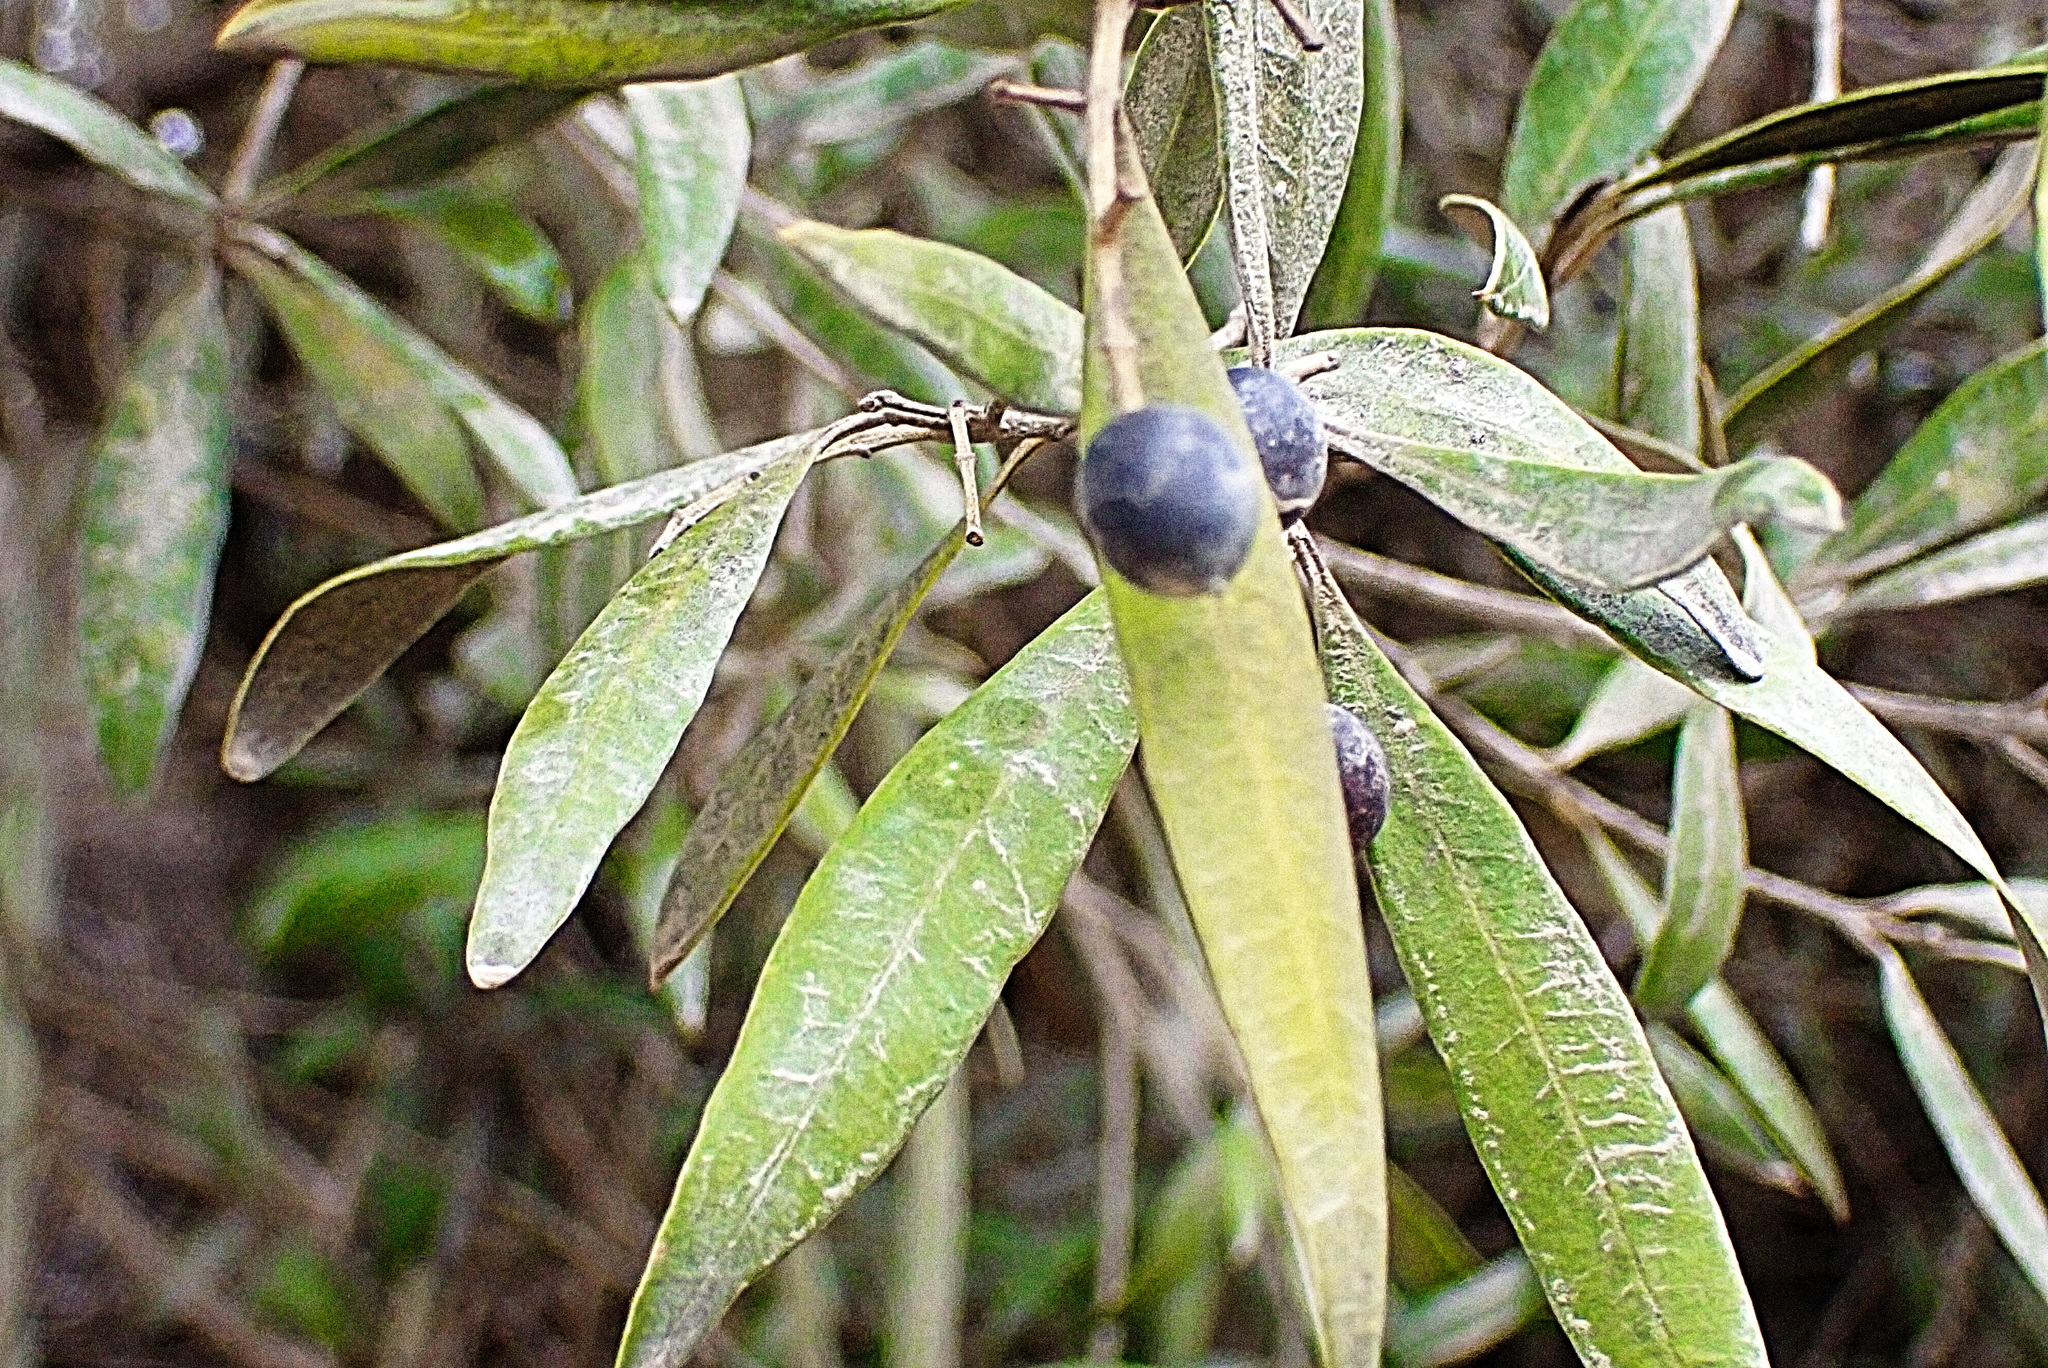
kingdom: Plantae
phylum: Tracheophyta
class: Magnoliopsida
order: Lamiales
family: Oleaceae
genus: Olea
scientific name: Olea europaea
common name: Olive
